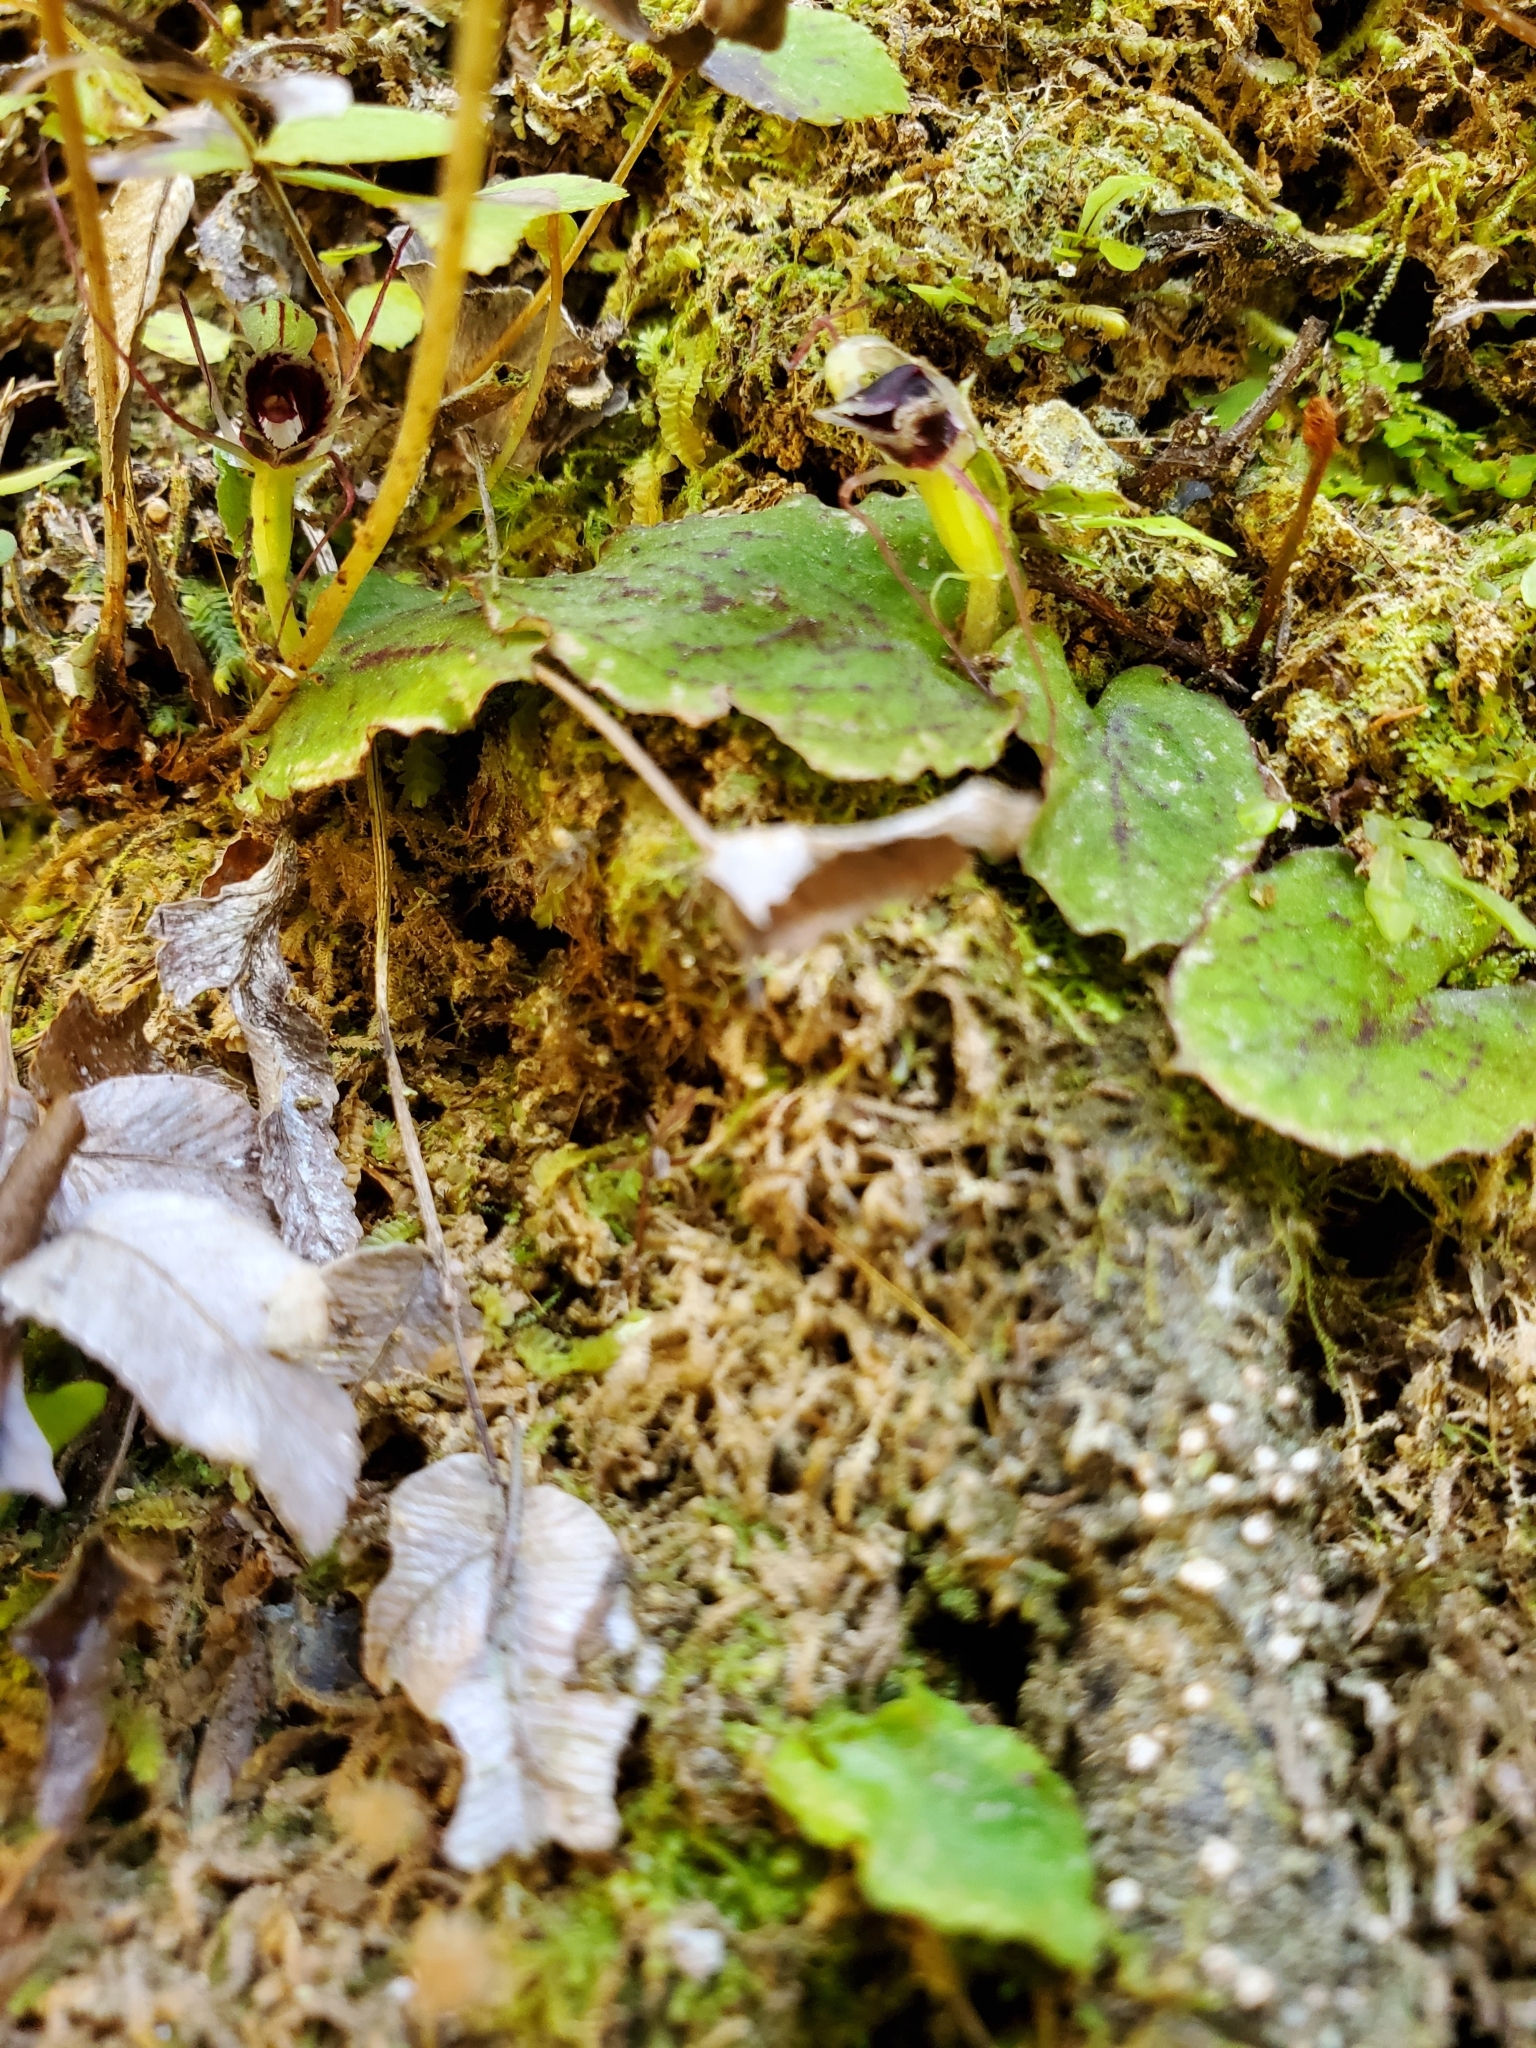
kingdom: Plantae
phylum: Tracheophyta
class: Liliopsida
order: Asparagales
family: Orchidaceae
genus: Corybas
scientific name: Corybas oblongus
